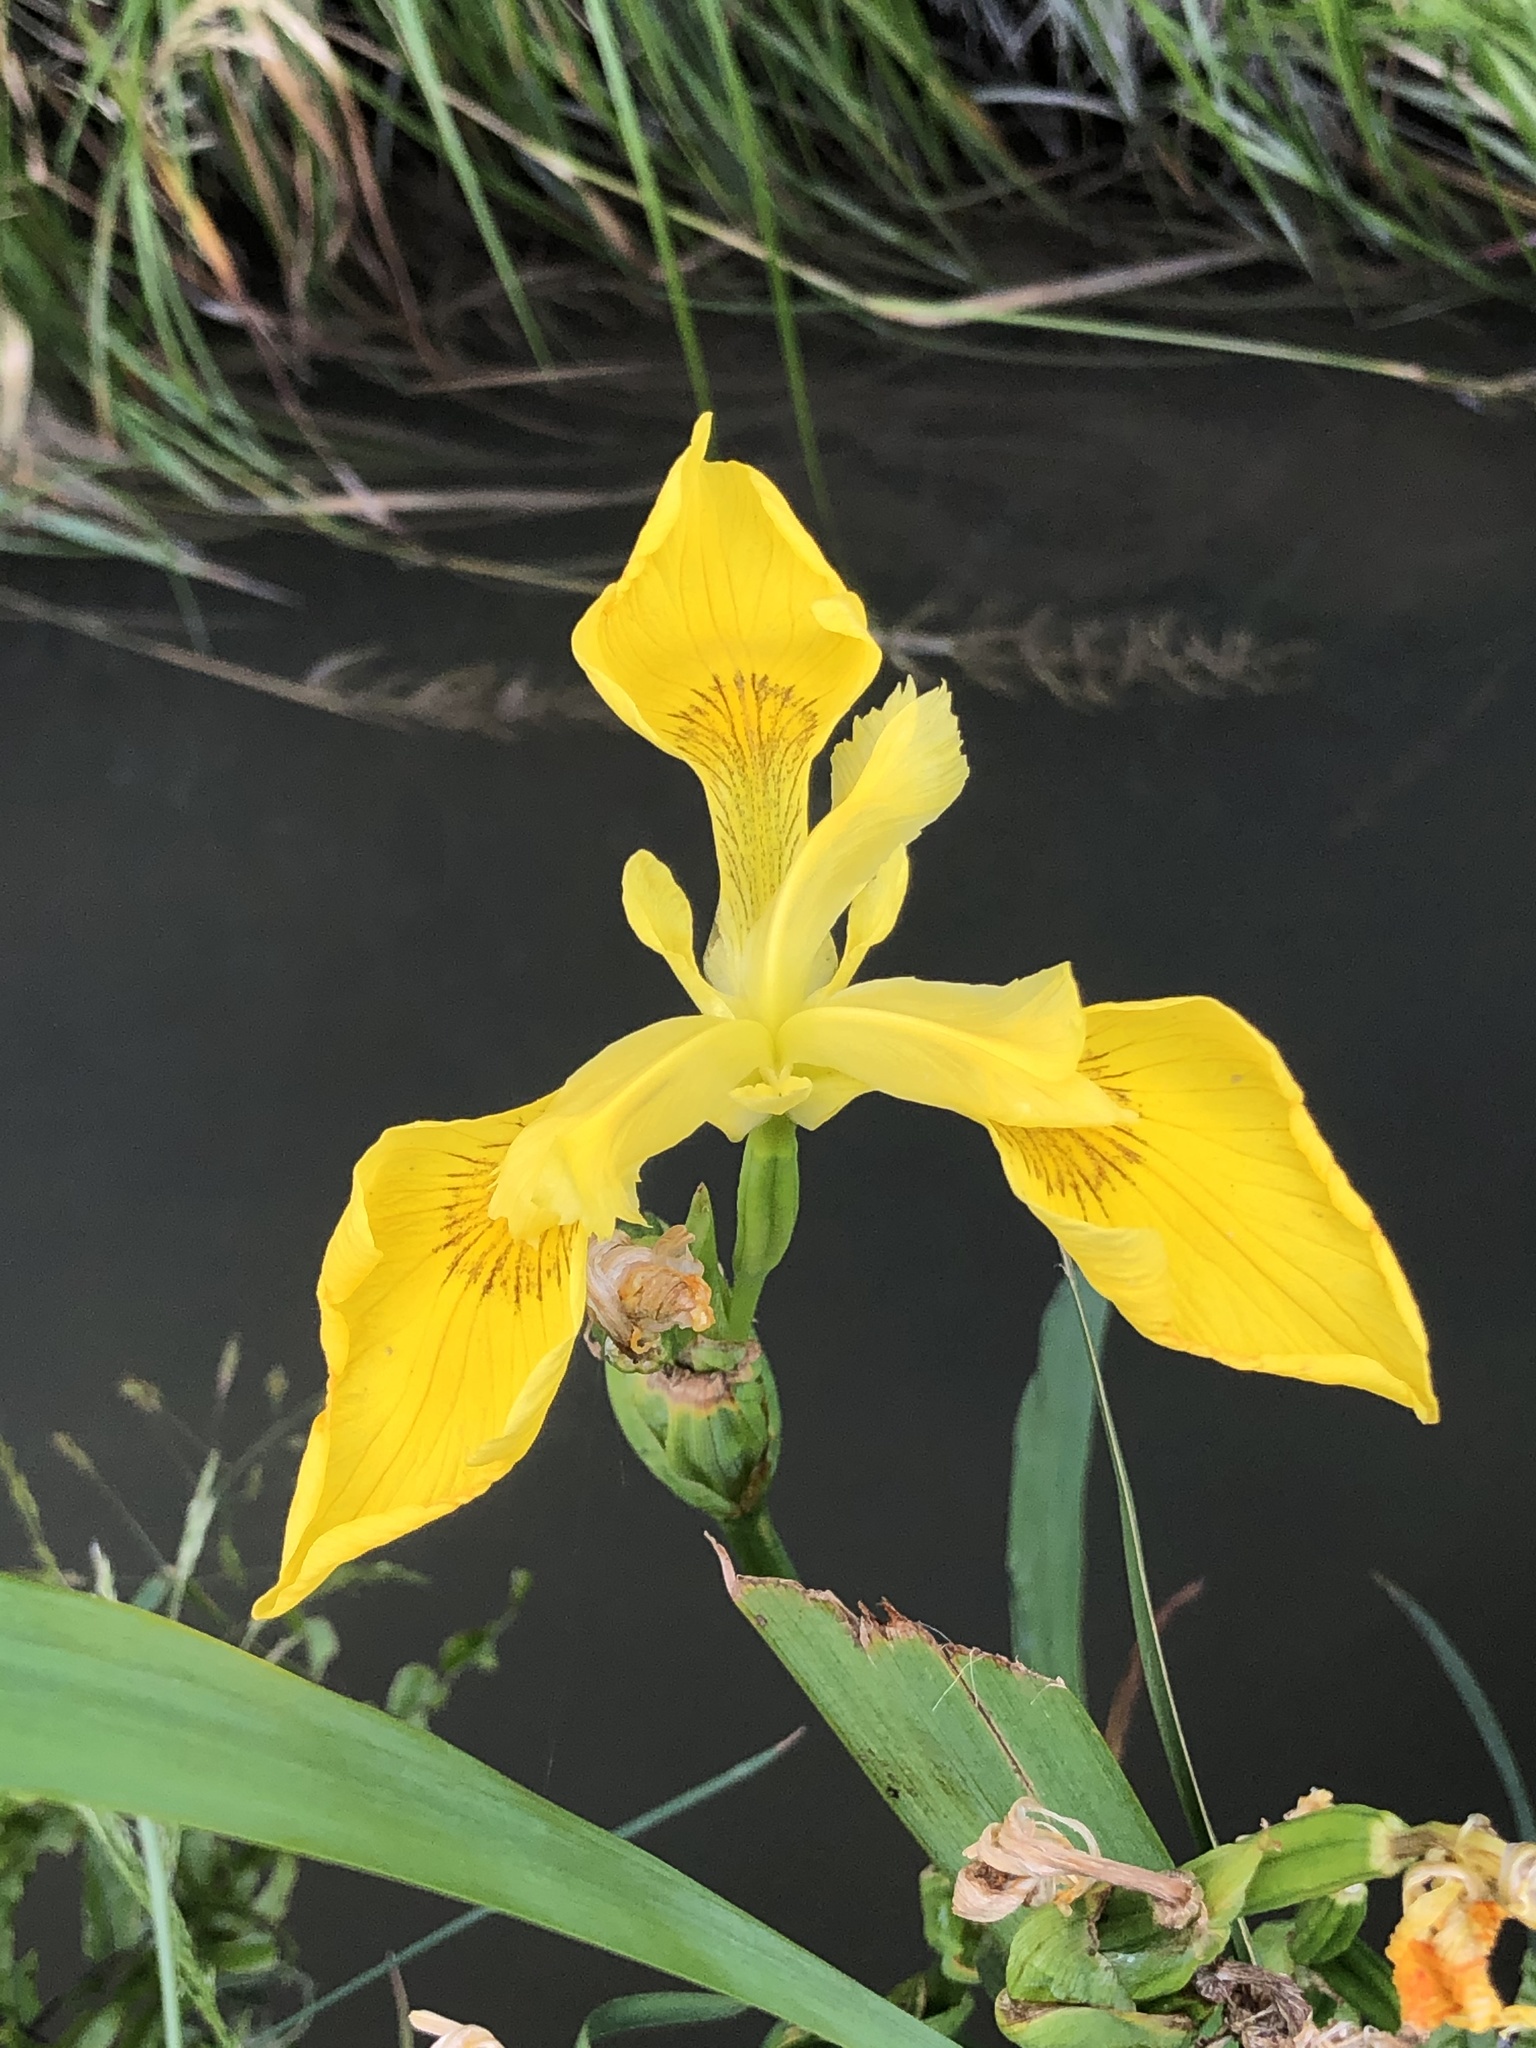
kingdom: Plantae
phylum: Tracheophyta
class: Liliopsida
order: Asparagales
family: Iridaceae
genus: Iris
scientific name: Iris pseudacorus
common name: Yellow flag
